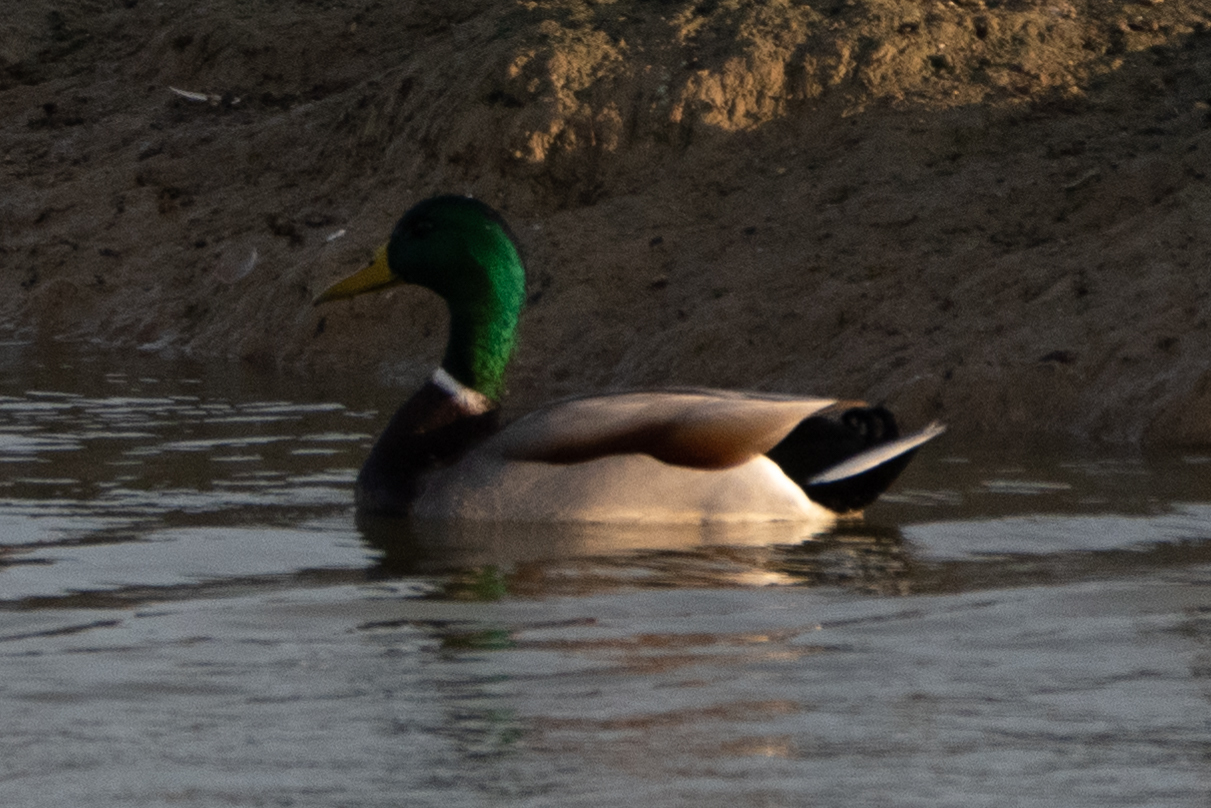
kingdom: Animalia
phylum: Chordata
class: Aves
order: Anseriformes
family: Anatidae
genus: Anas
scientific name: Anas platyrhynchos
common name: Mallard
